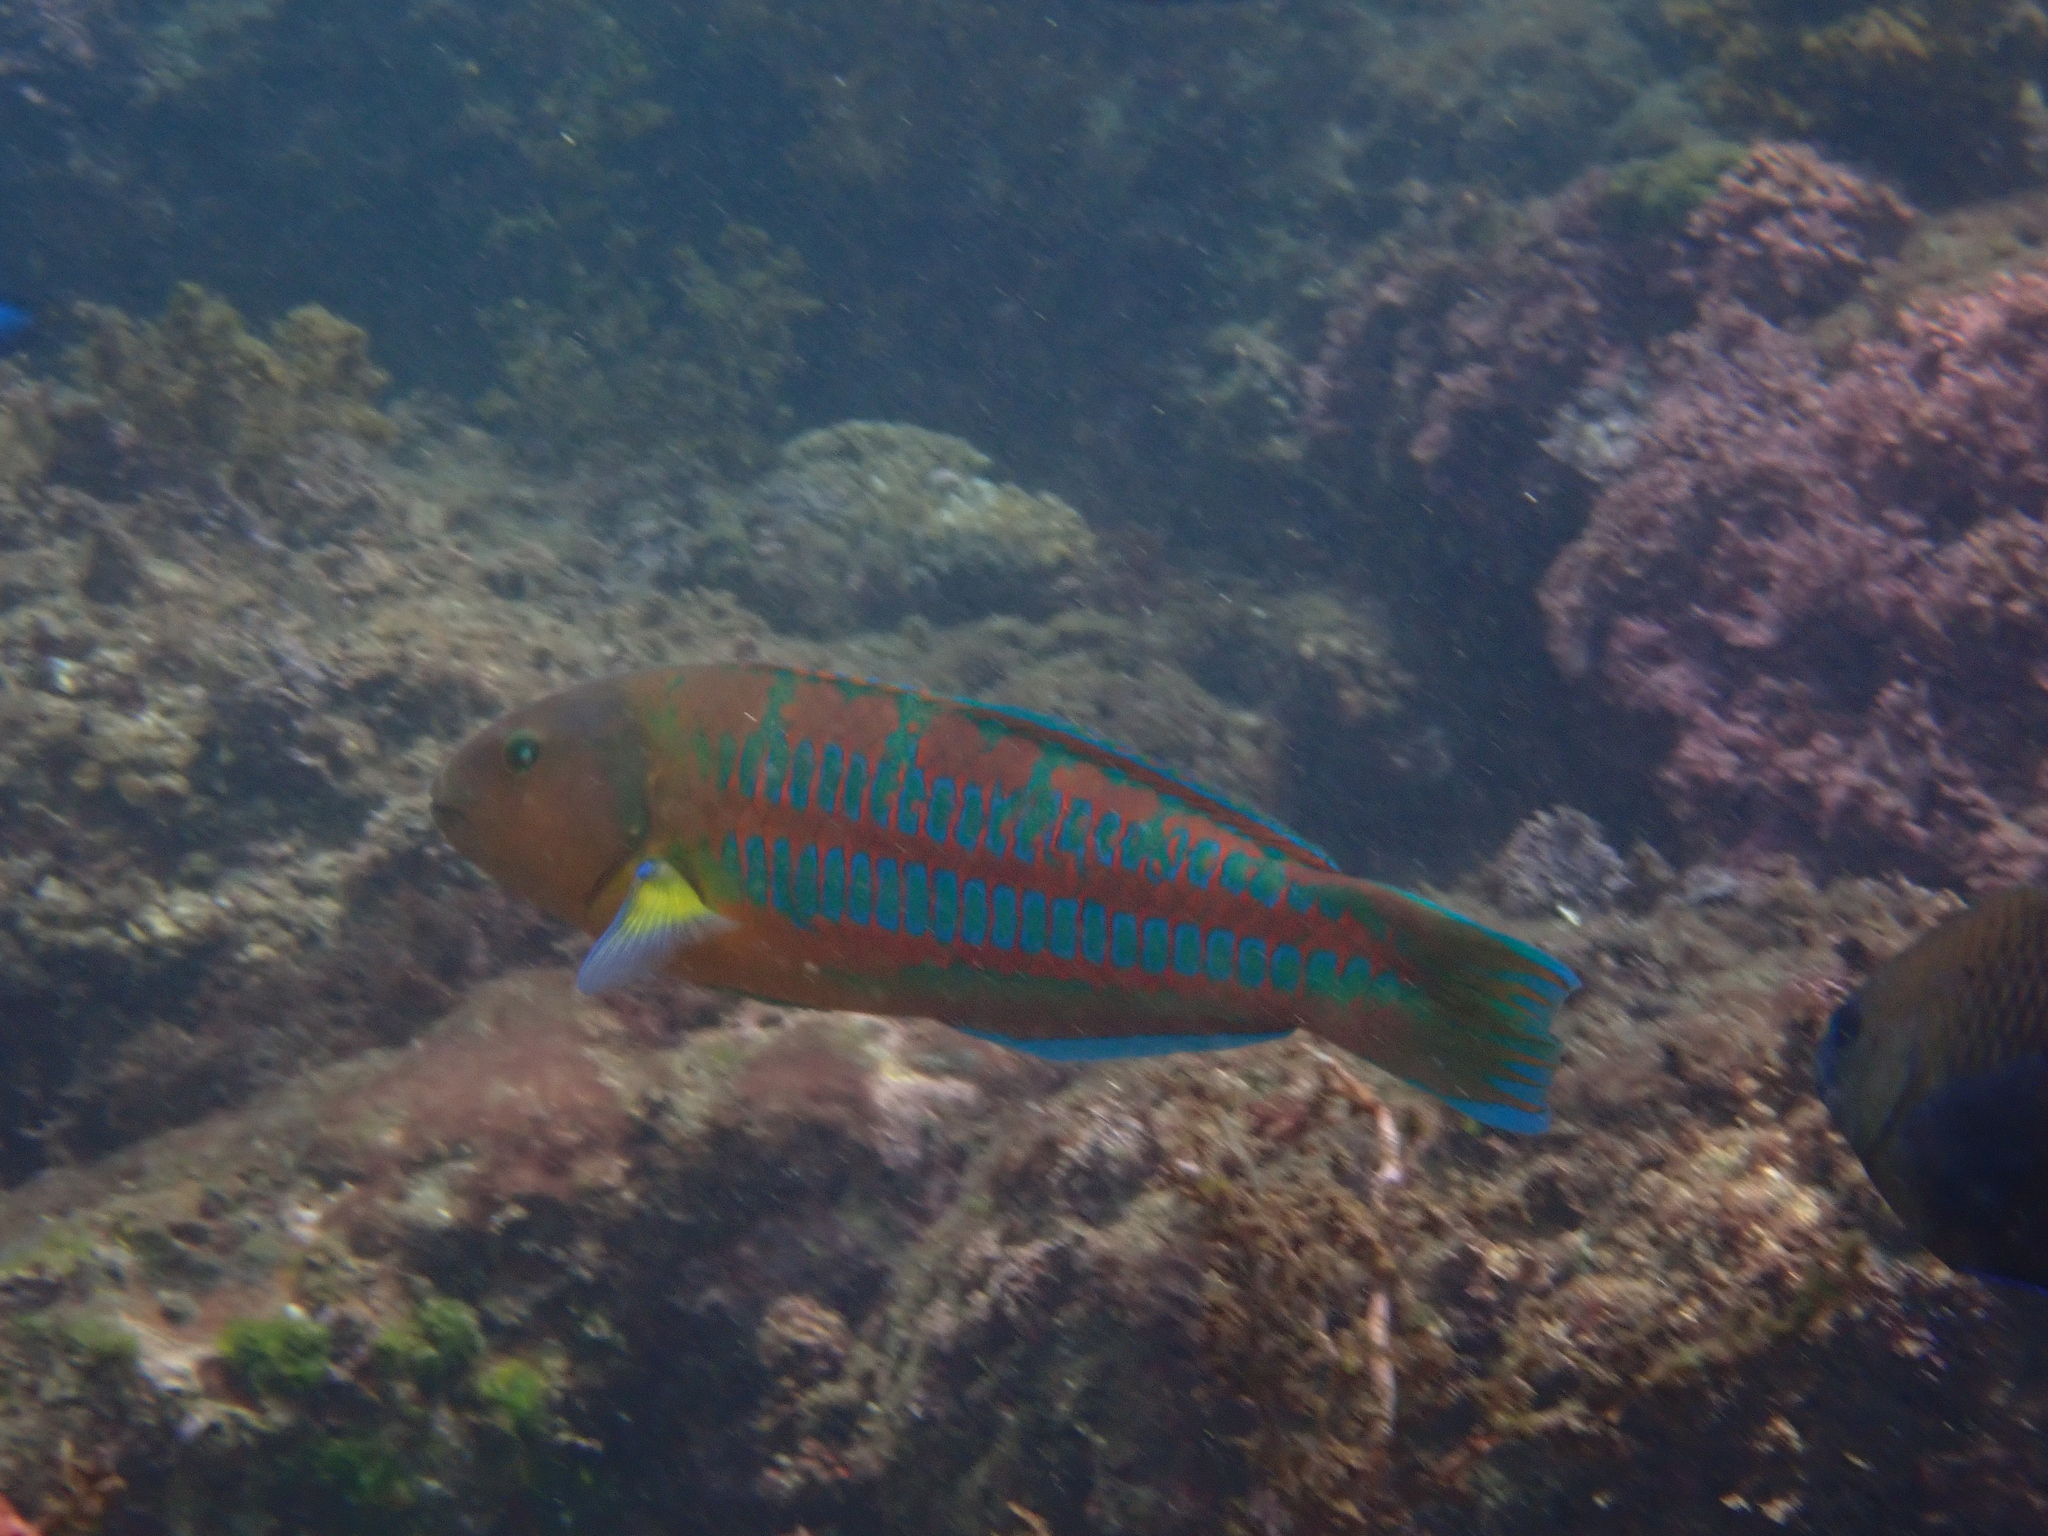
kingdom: Animalia
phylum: Chordata
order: Perciformes
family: Labridae
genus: Thalassoma
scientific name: Thalassoma trilobatum
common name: Christmas wrasse
